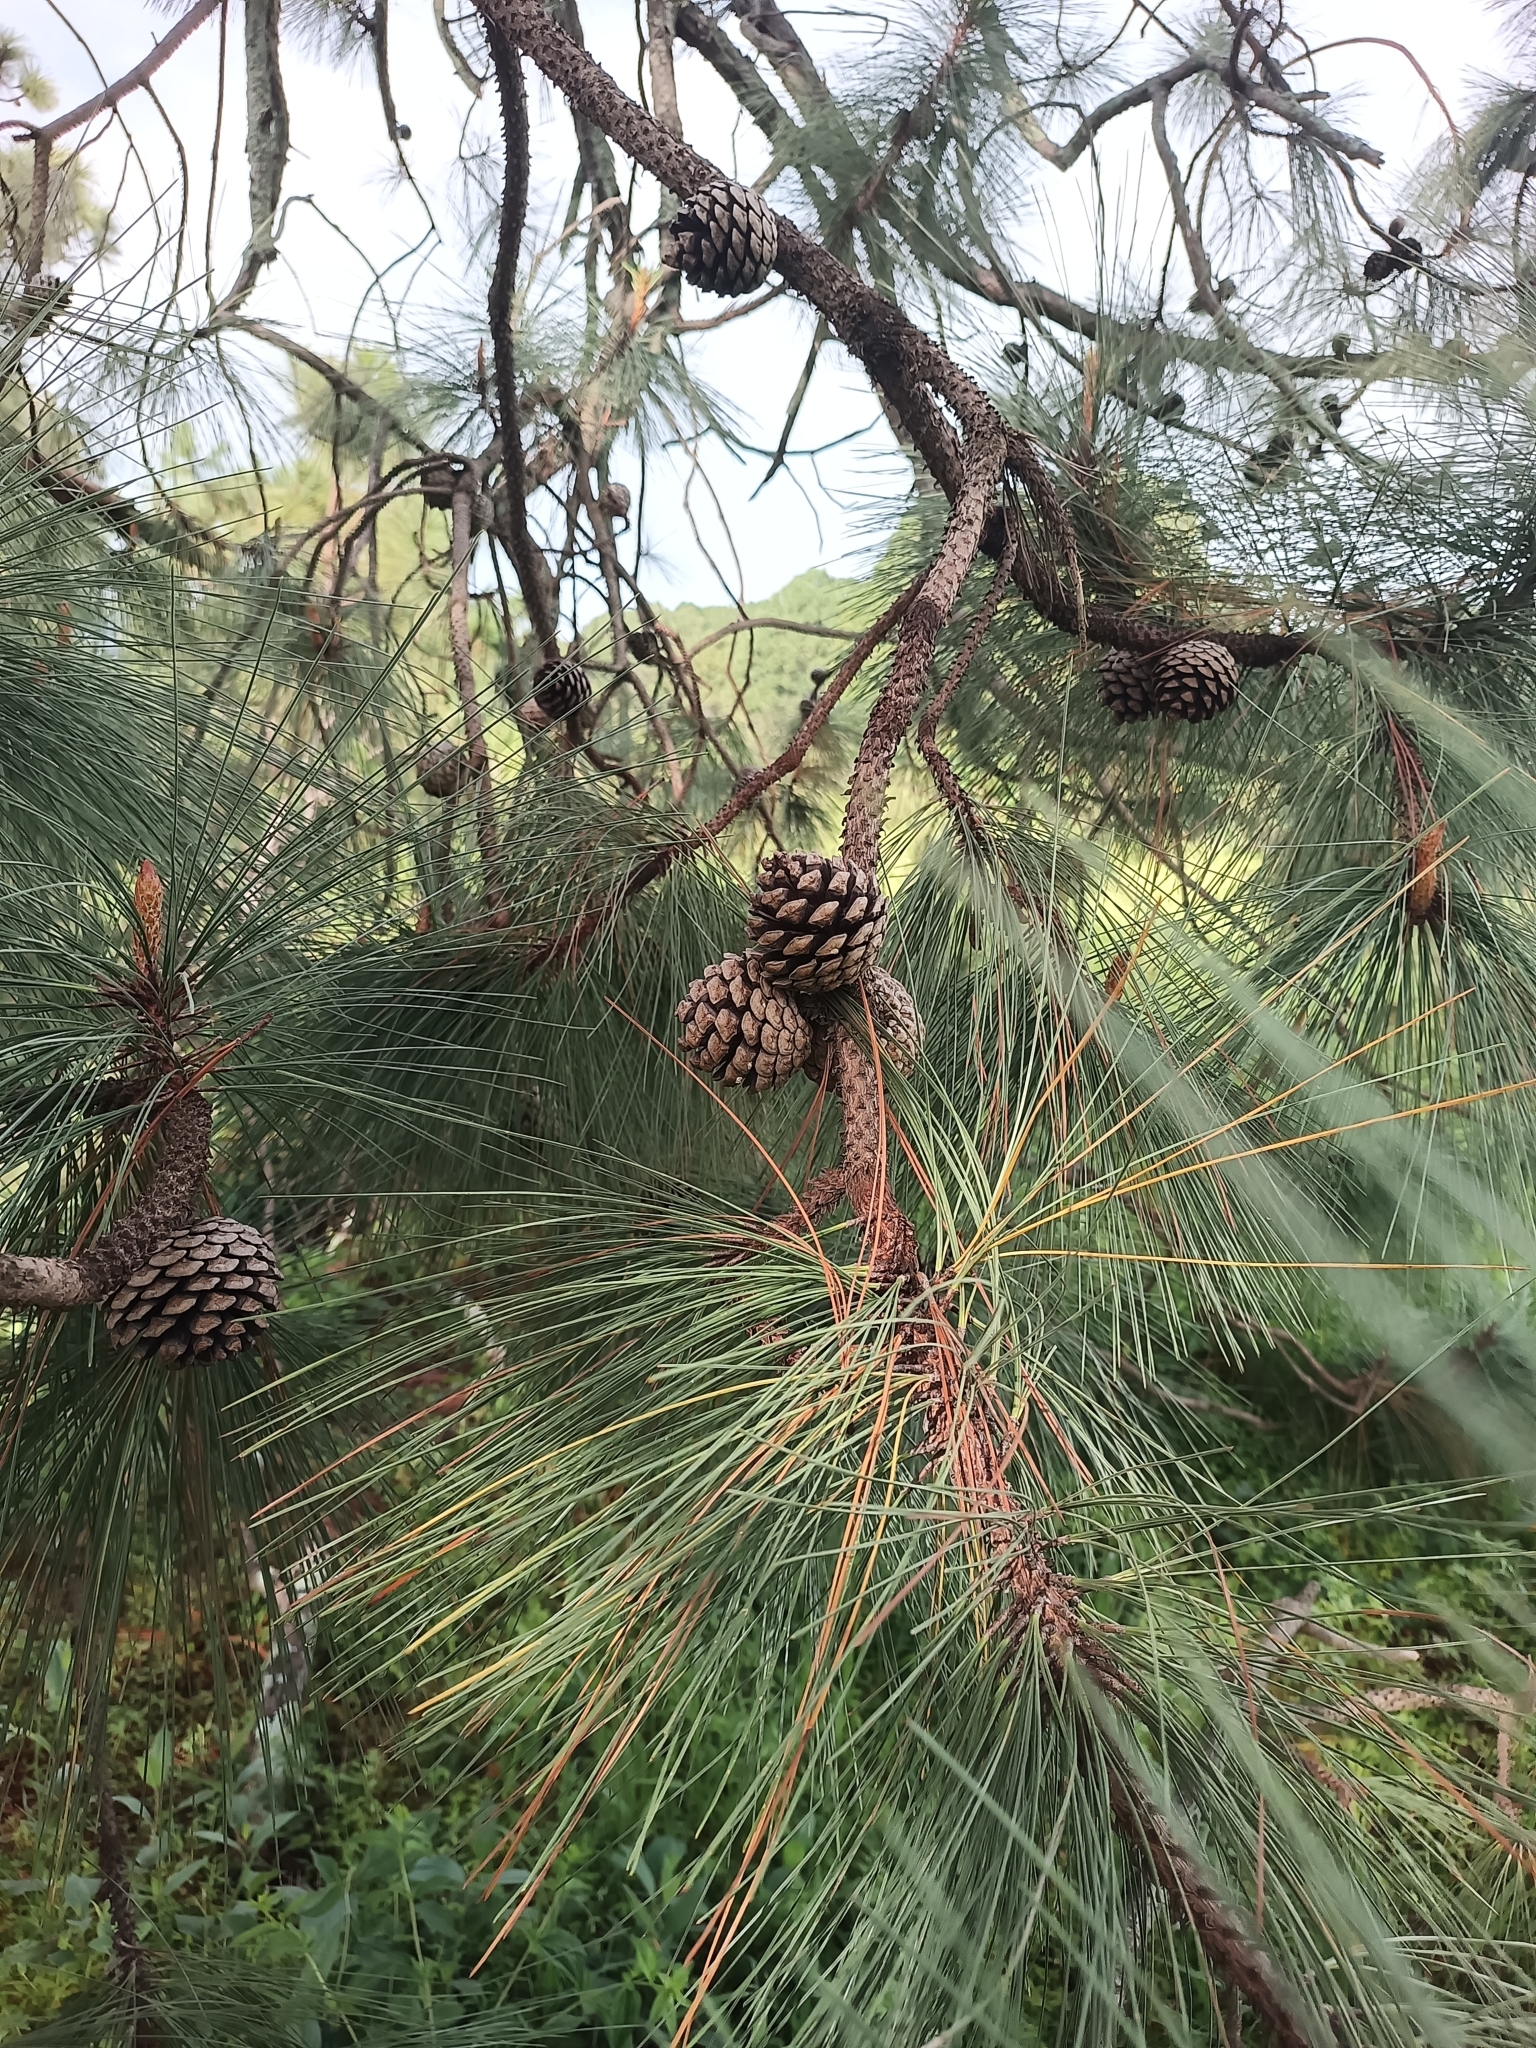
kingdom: Plantae
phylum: Tracheophyta
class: Pinopsida
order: Pinales
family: Pinaceae
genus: Pinus
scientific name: Pinus oocarpa
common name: Egg-cone pine
